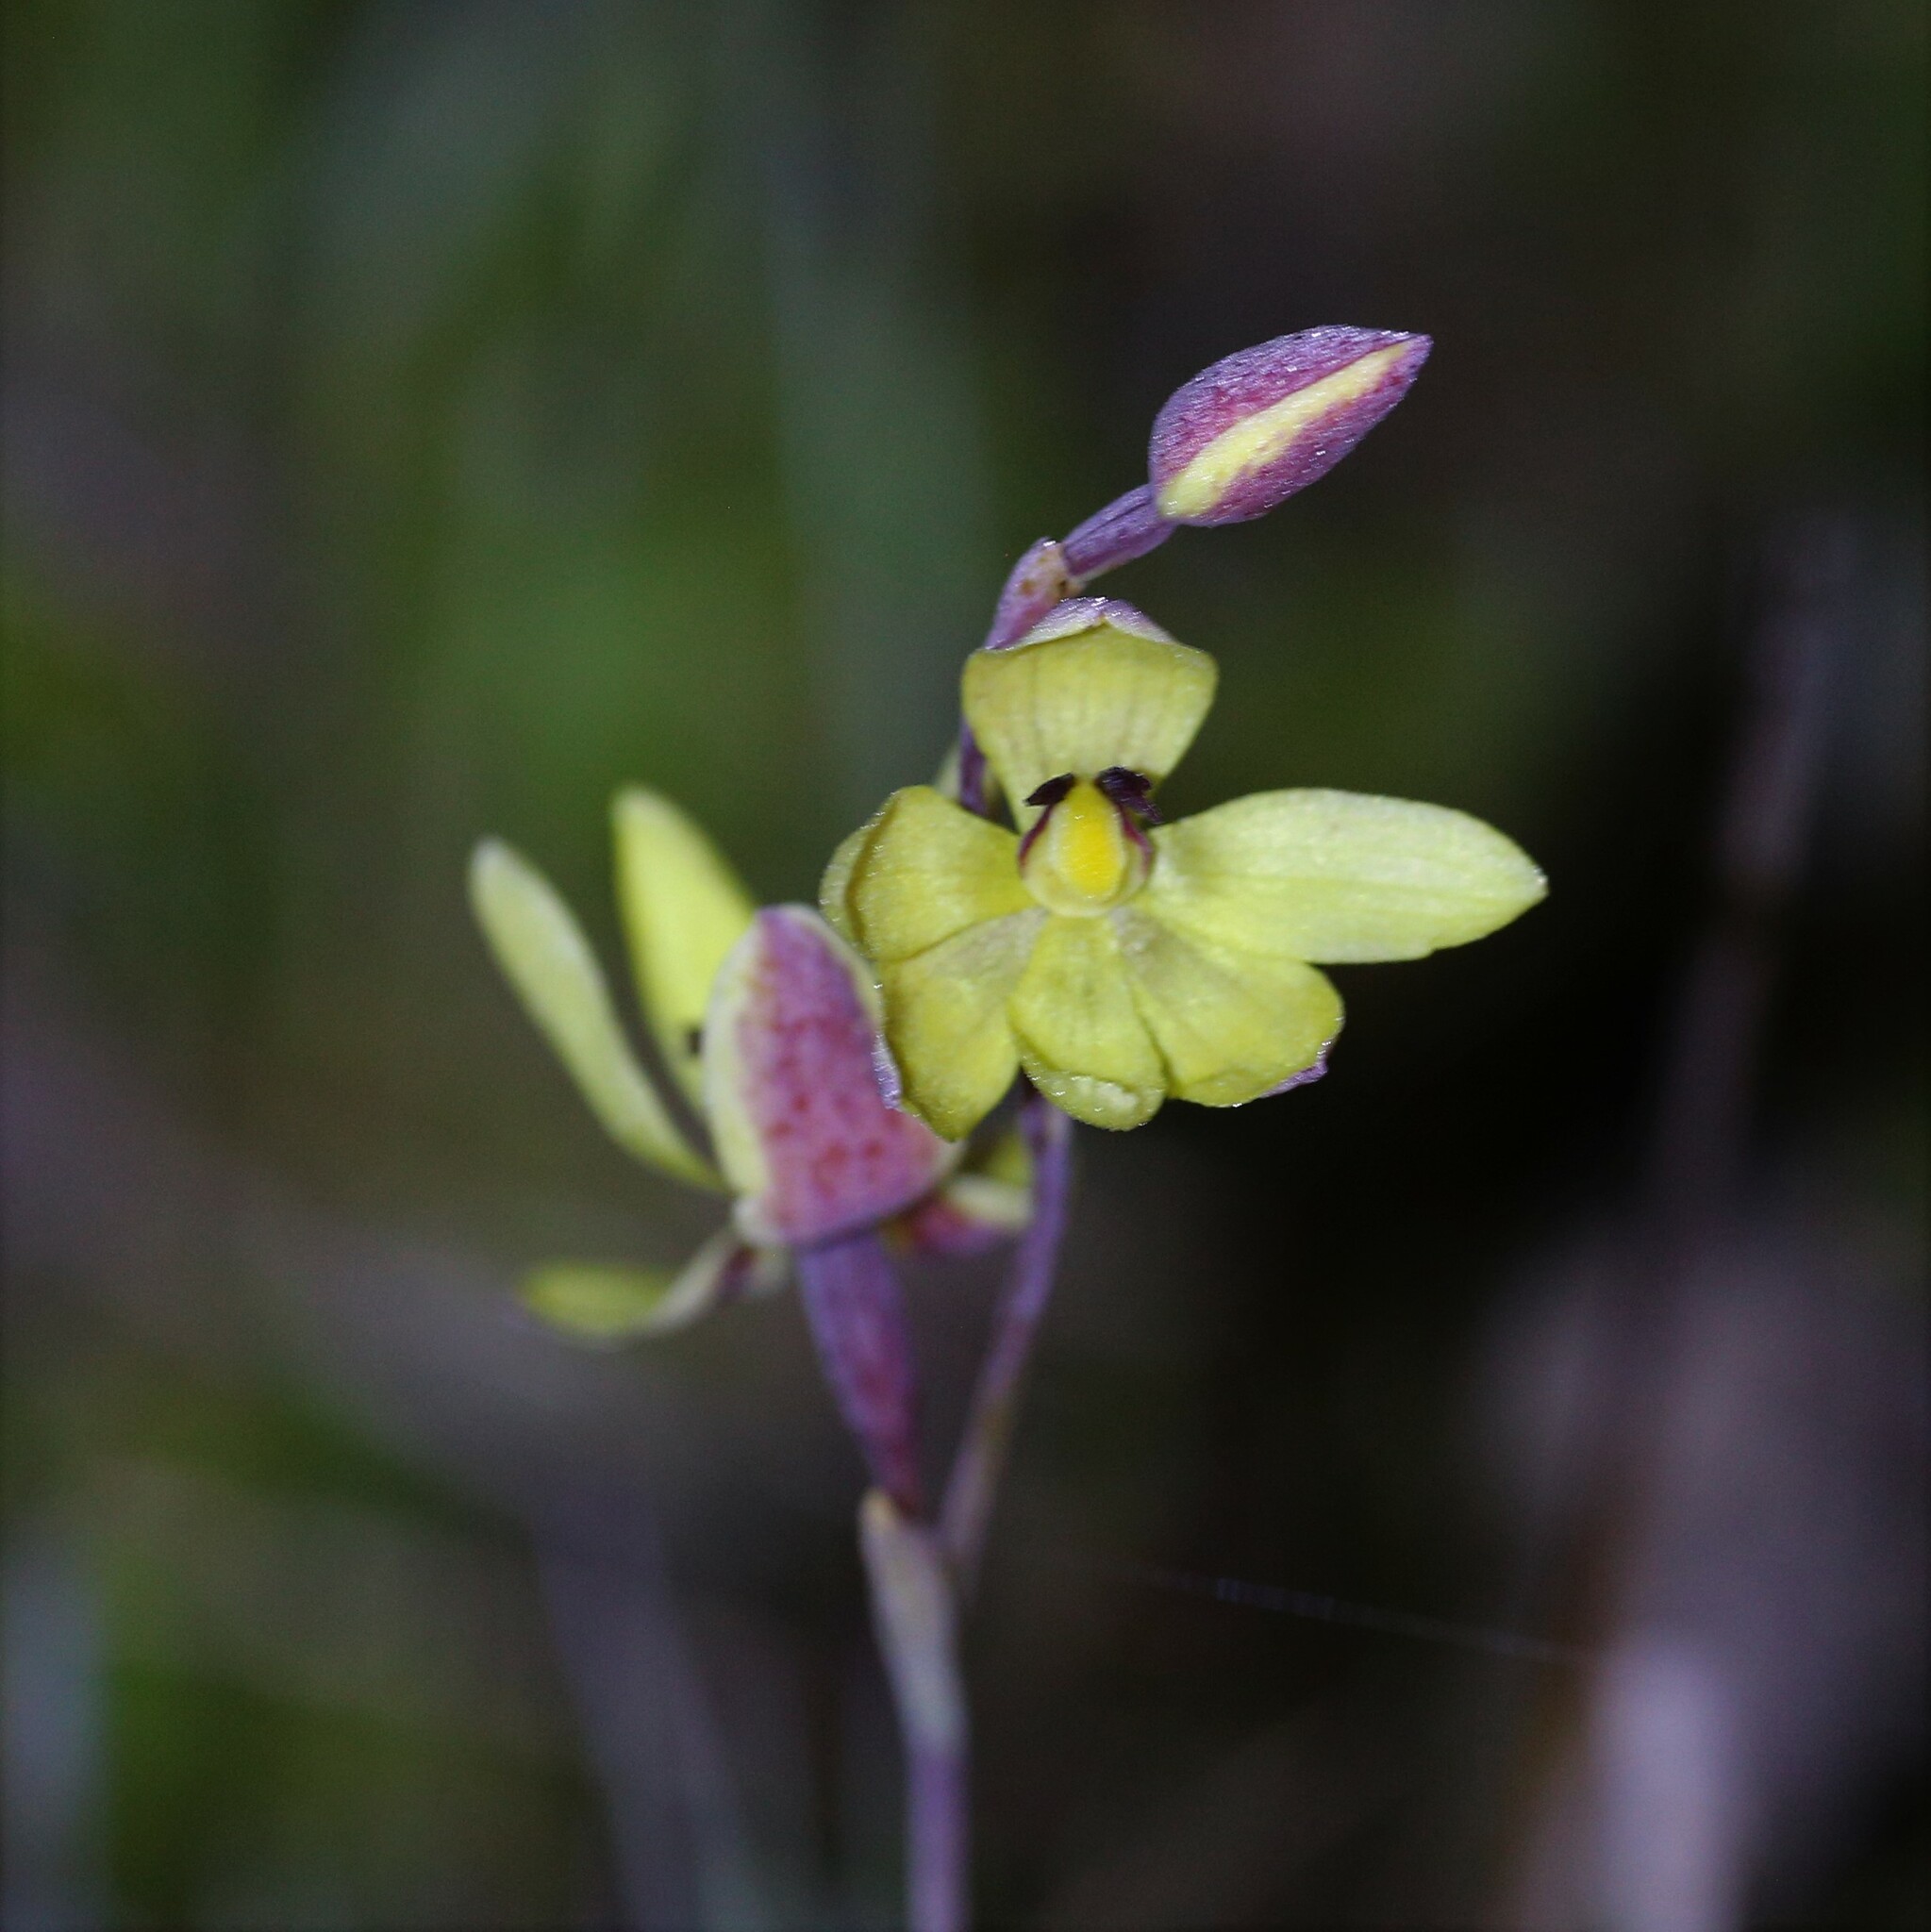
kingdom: Plantae
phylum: Tracheophyta
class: Liliopsida
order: Asparagales
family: Orchidaceae
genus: Thelymitra
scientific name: Thelymitra antennifera
